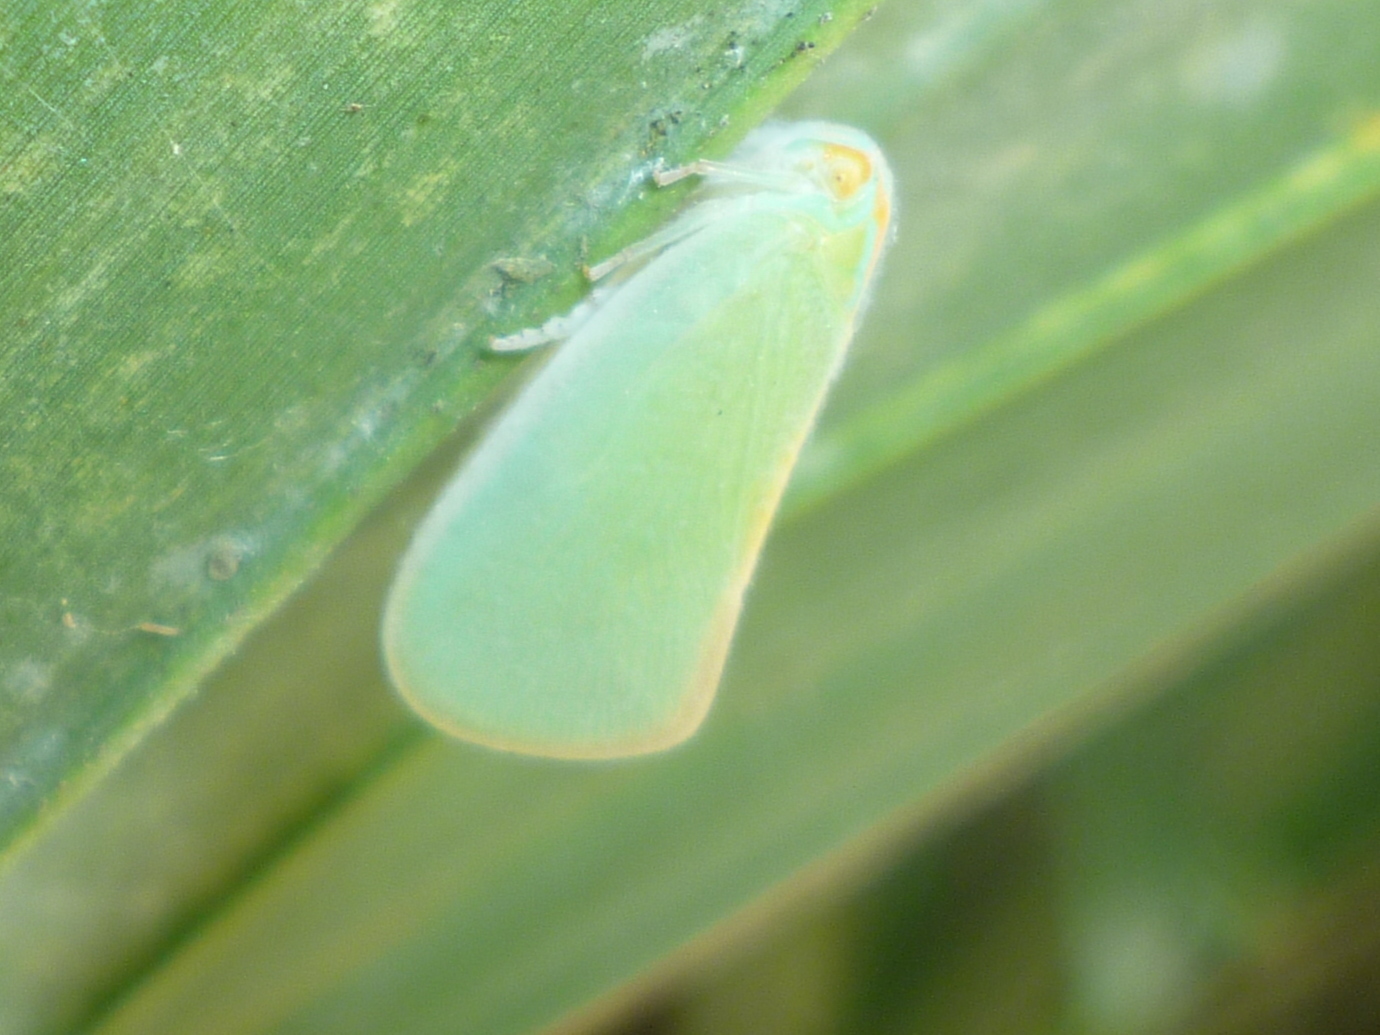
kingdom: Animalia
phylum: Arthropoda
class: Insecta
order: Hemiptera
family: Flatidae
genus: Ormenaria
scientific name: Ormenaria rufifascia
